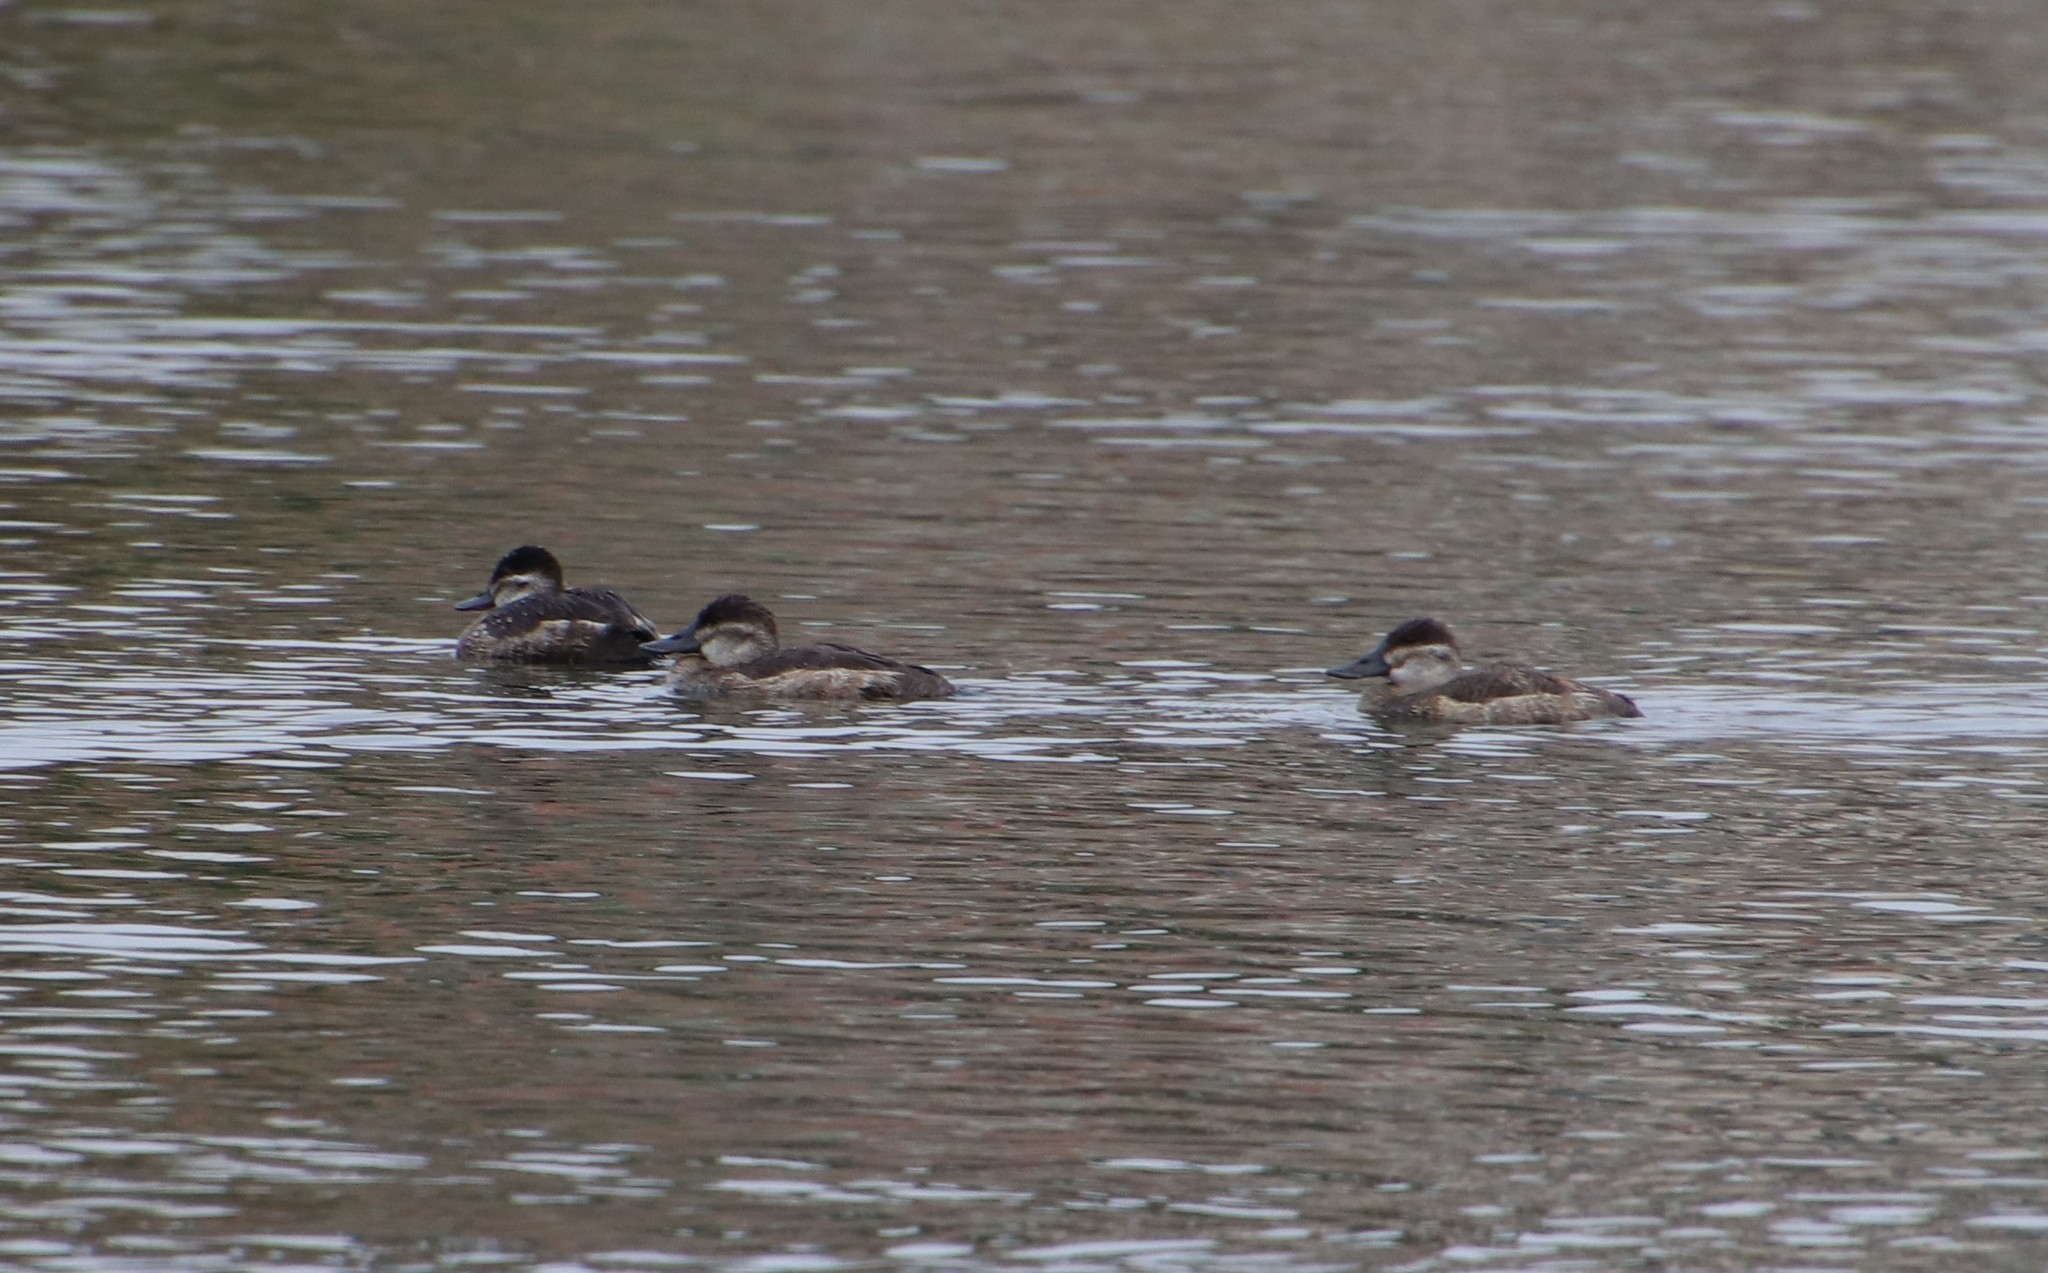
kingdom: Animalia
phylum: Chordata
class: Aves
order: Anseriformes
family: Anatidae
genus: Oxyura
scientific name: Oxyura jamaicensis
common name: Ruddy duck
